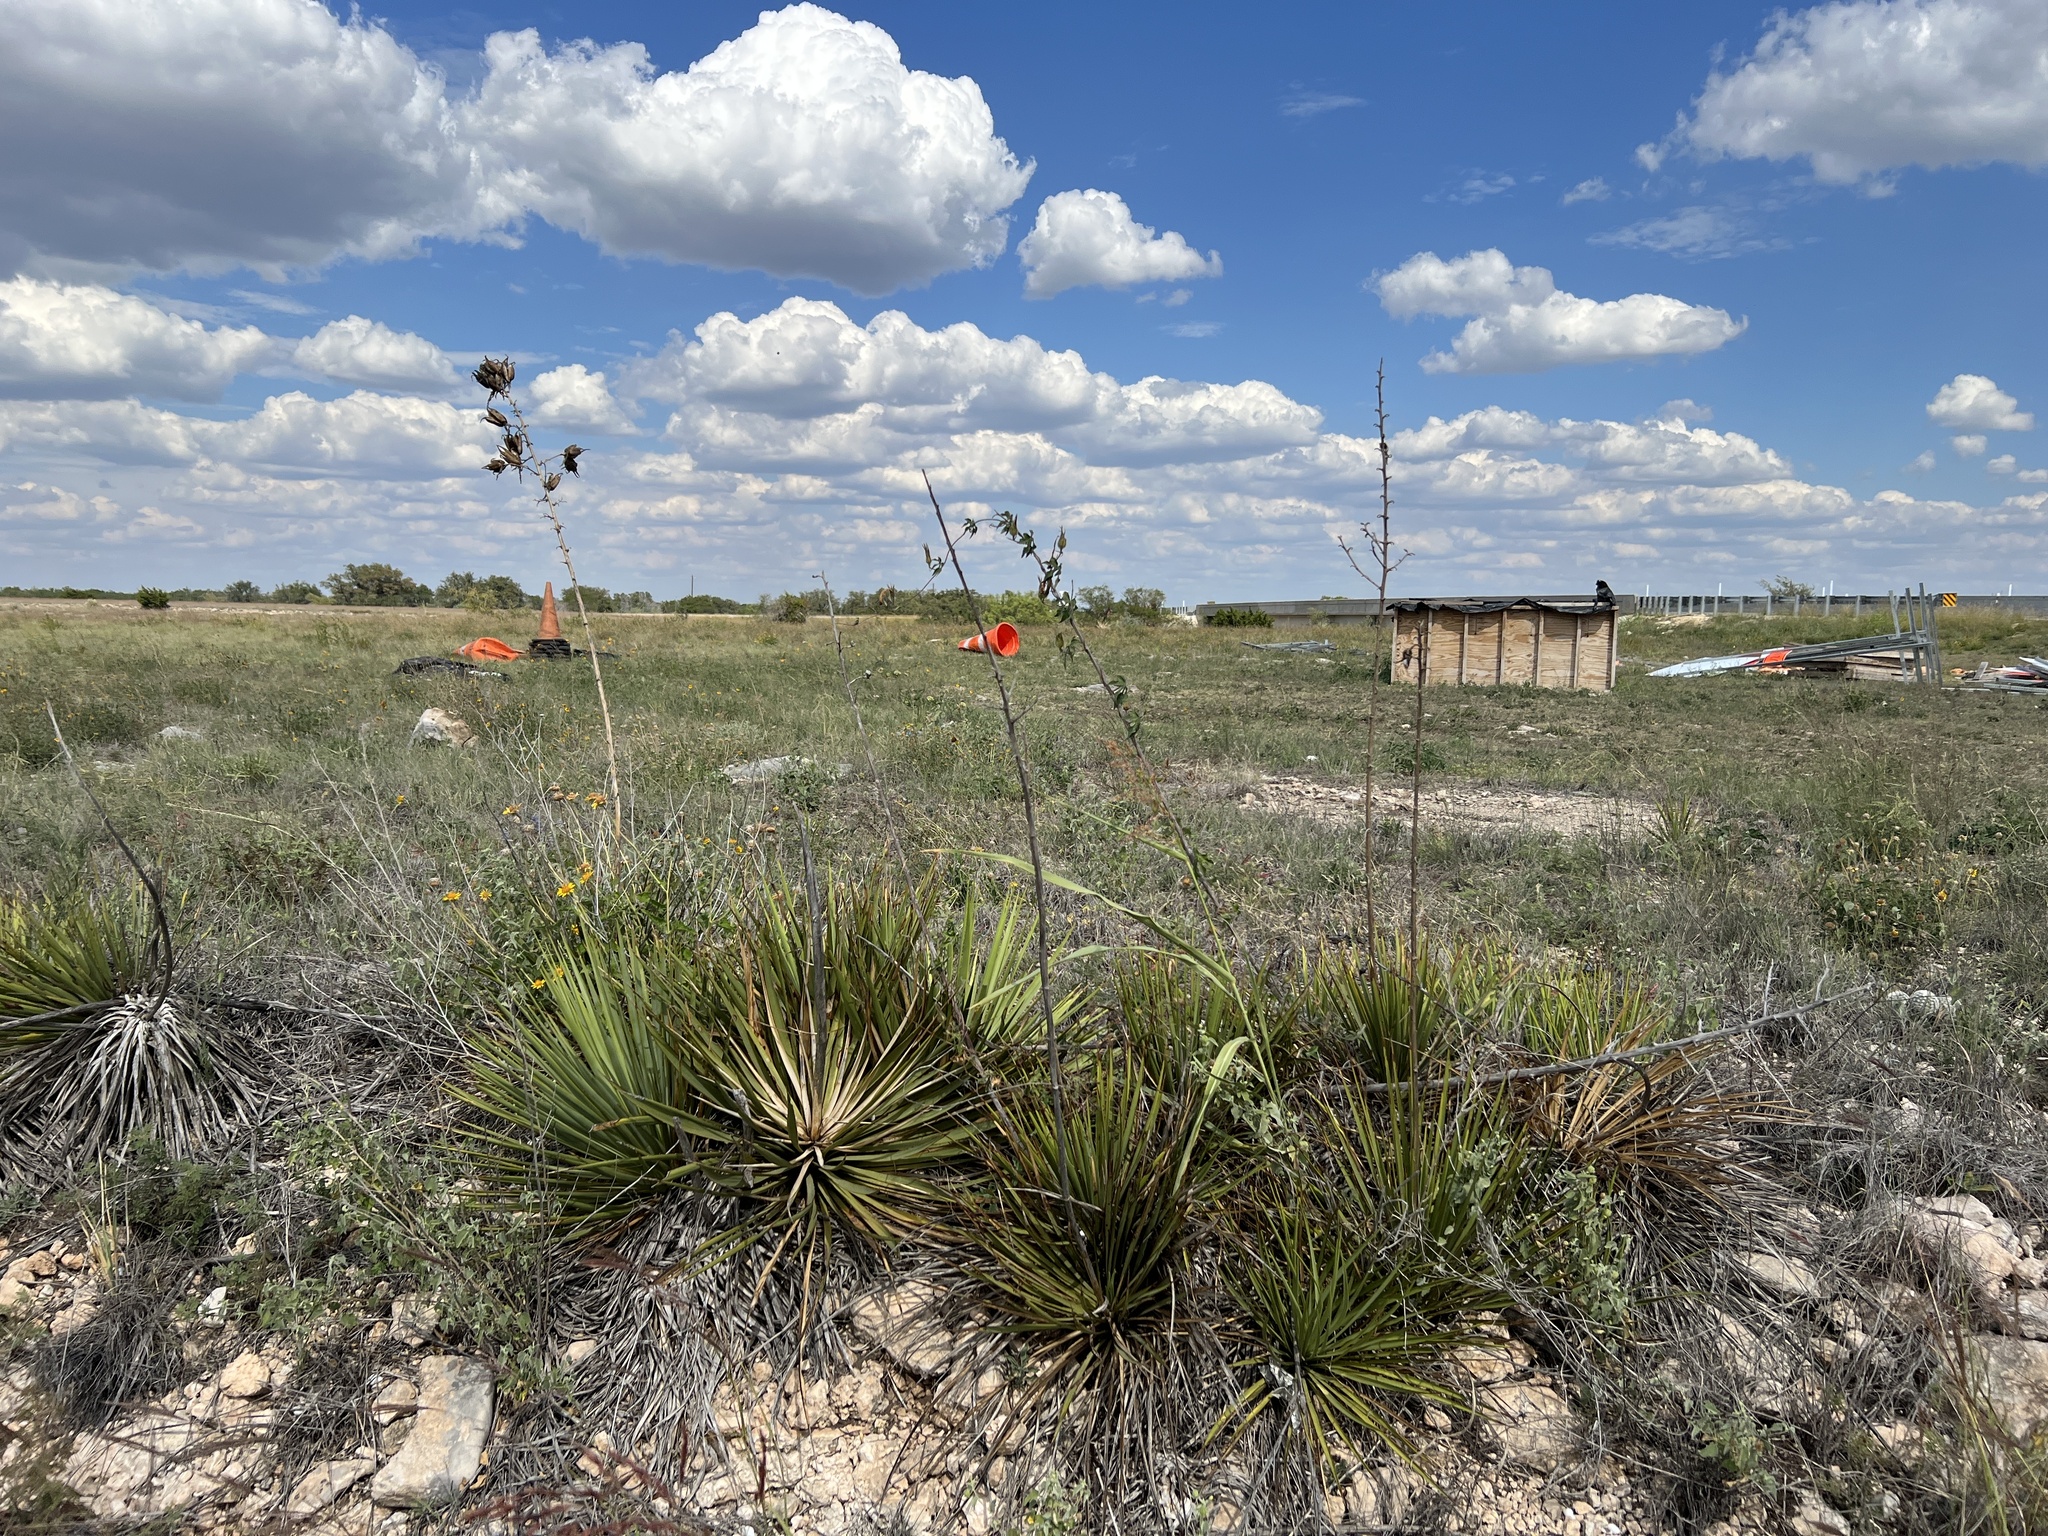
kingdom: Plantae
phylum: Tracheophyta
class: Liliopsida
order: Asparagales
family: Asparagaceae
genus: Yucca
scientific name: Yucca reverchonii
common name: San angelo yucca
